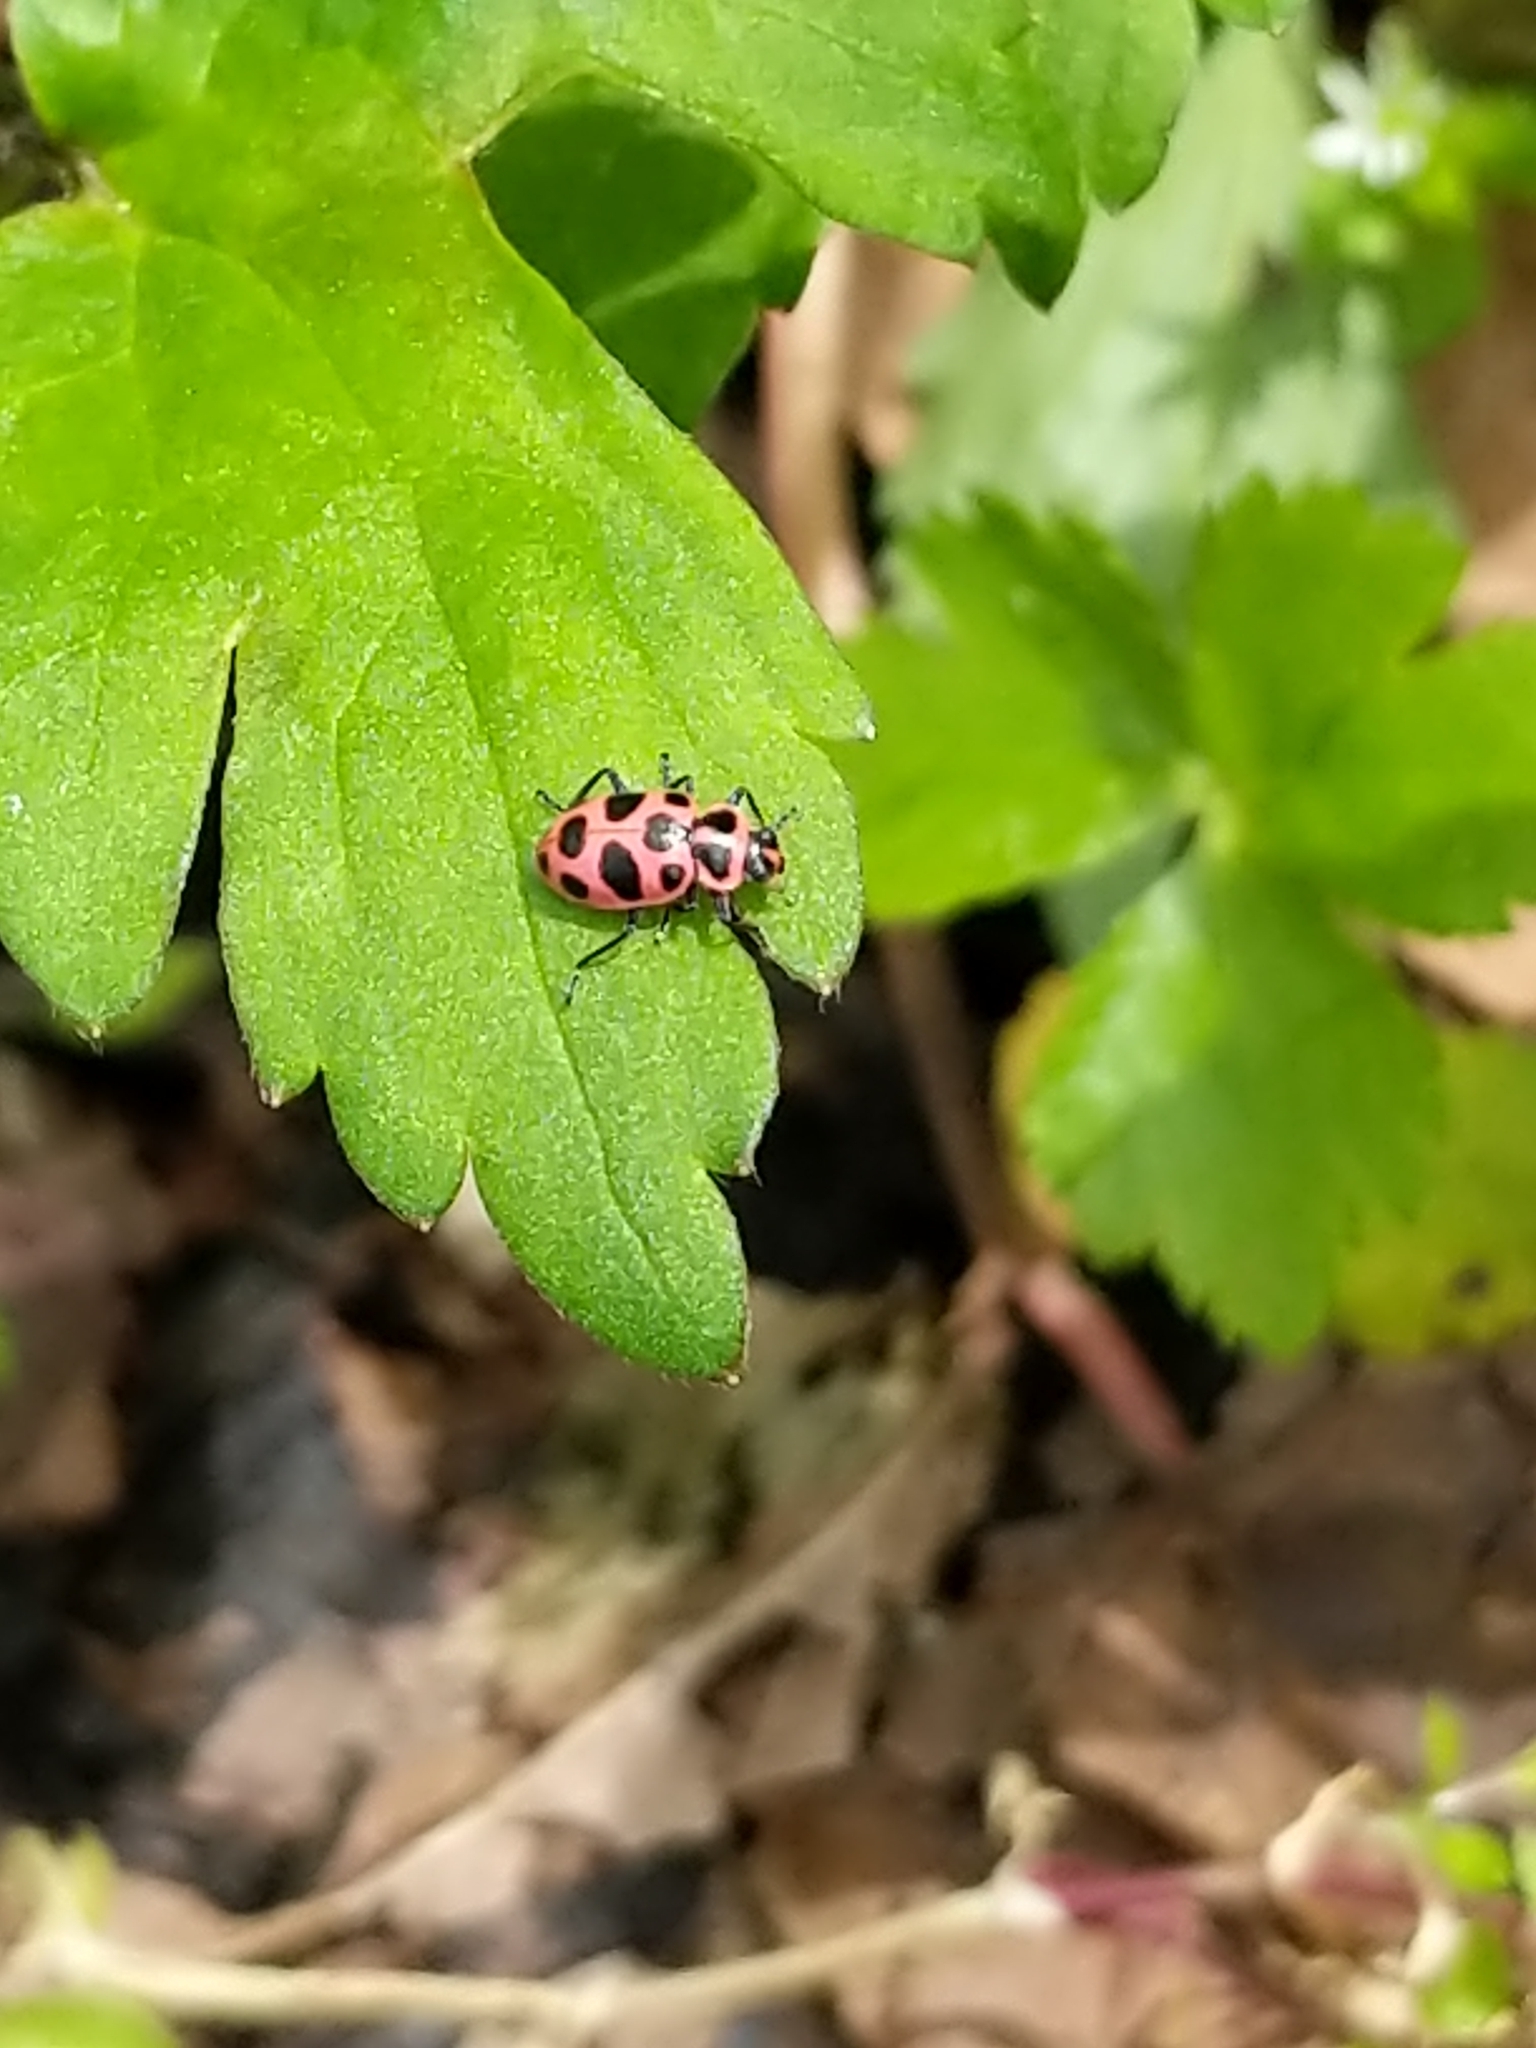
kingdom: Animalia
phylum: Arthropoda
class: Insecta
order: Coleoptera
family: Coccinellidae
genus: Coleomegilla
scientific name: Coleomegilla maculata
